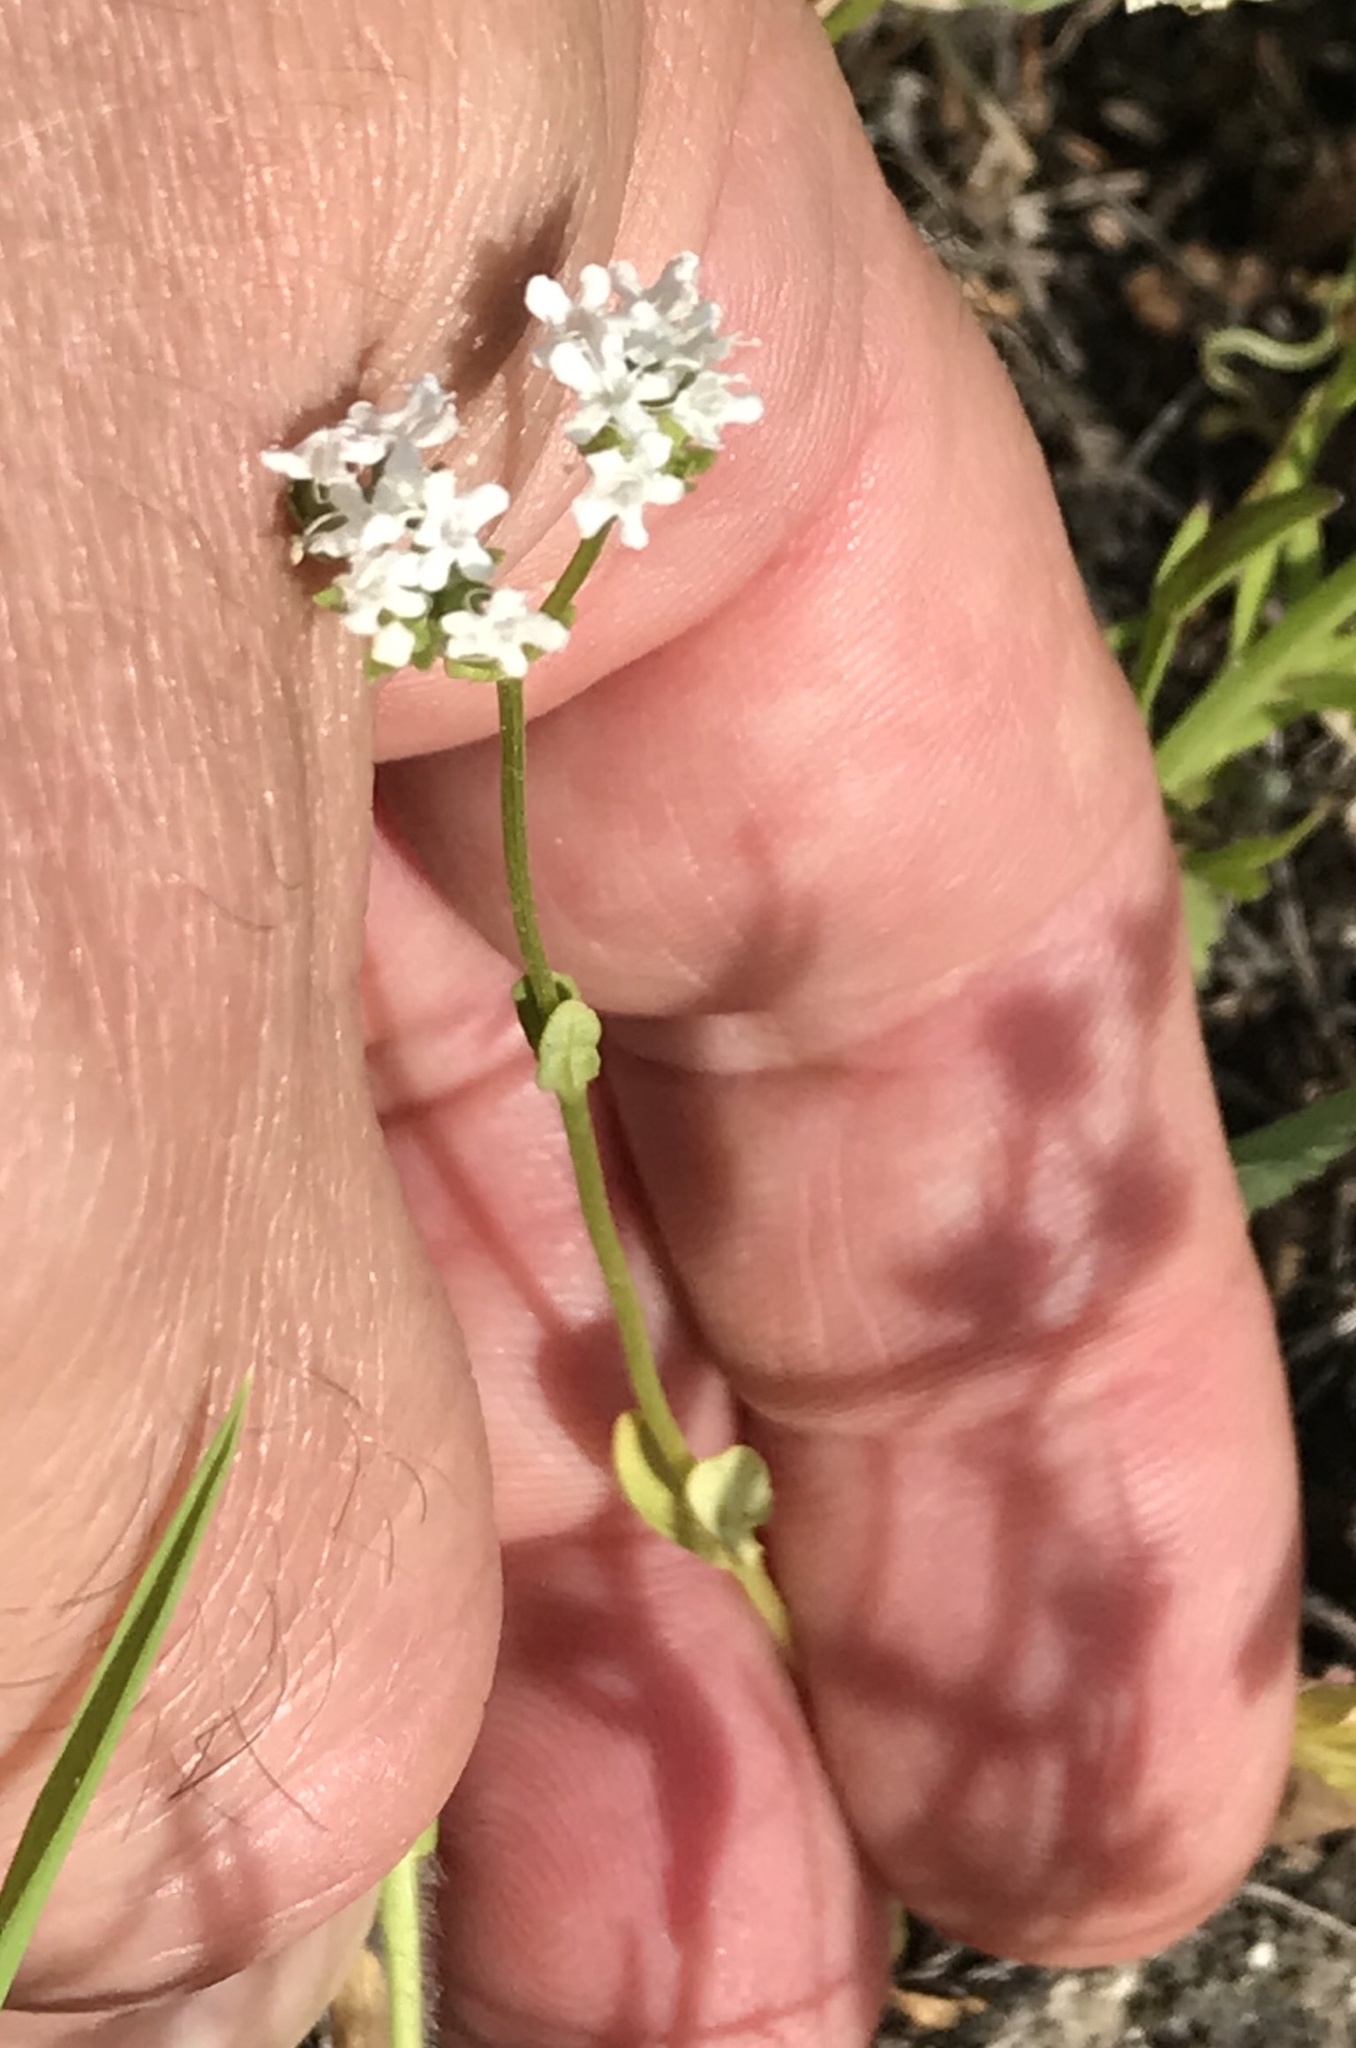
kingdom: Plantae
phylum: Tracheophyta
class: Magnoliopsida
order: Dipsacales
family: Caprifoliaceae
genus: Valerianella
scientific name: Valerianella amarella
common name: Hariy cornsalad
